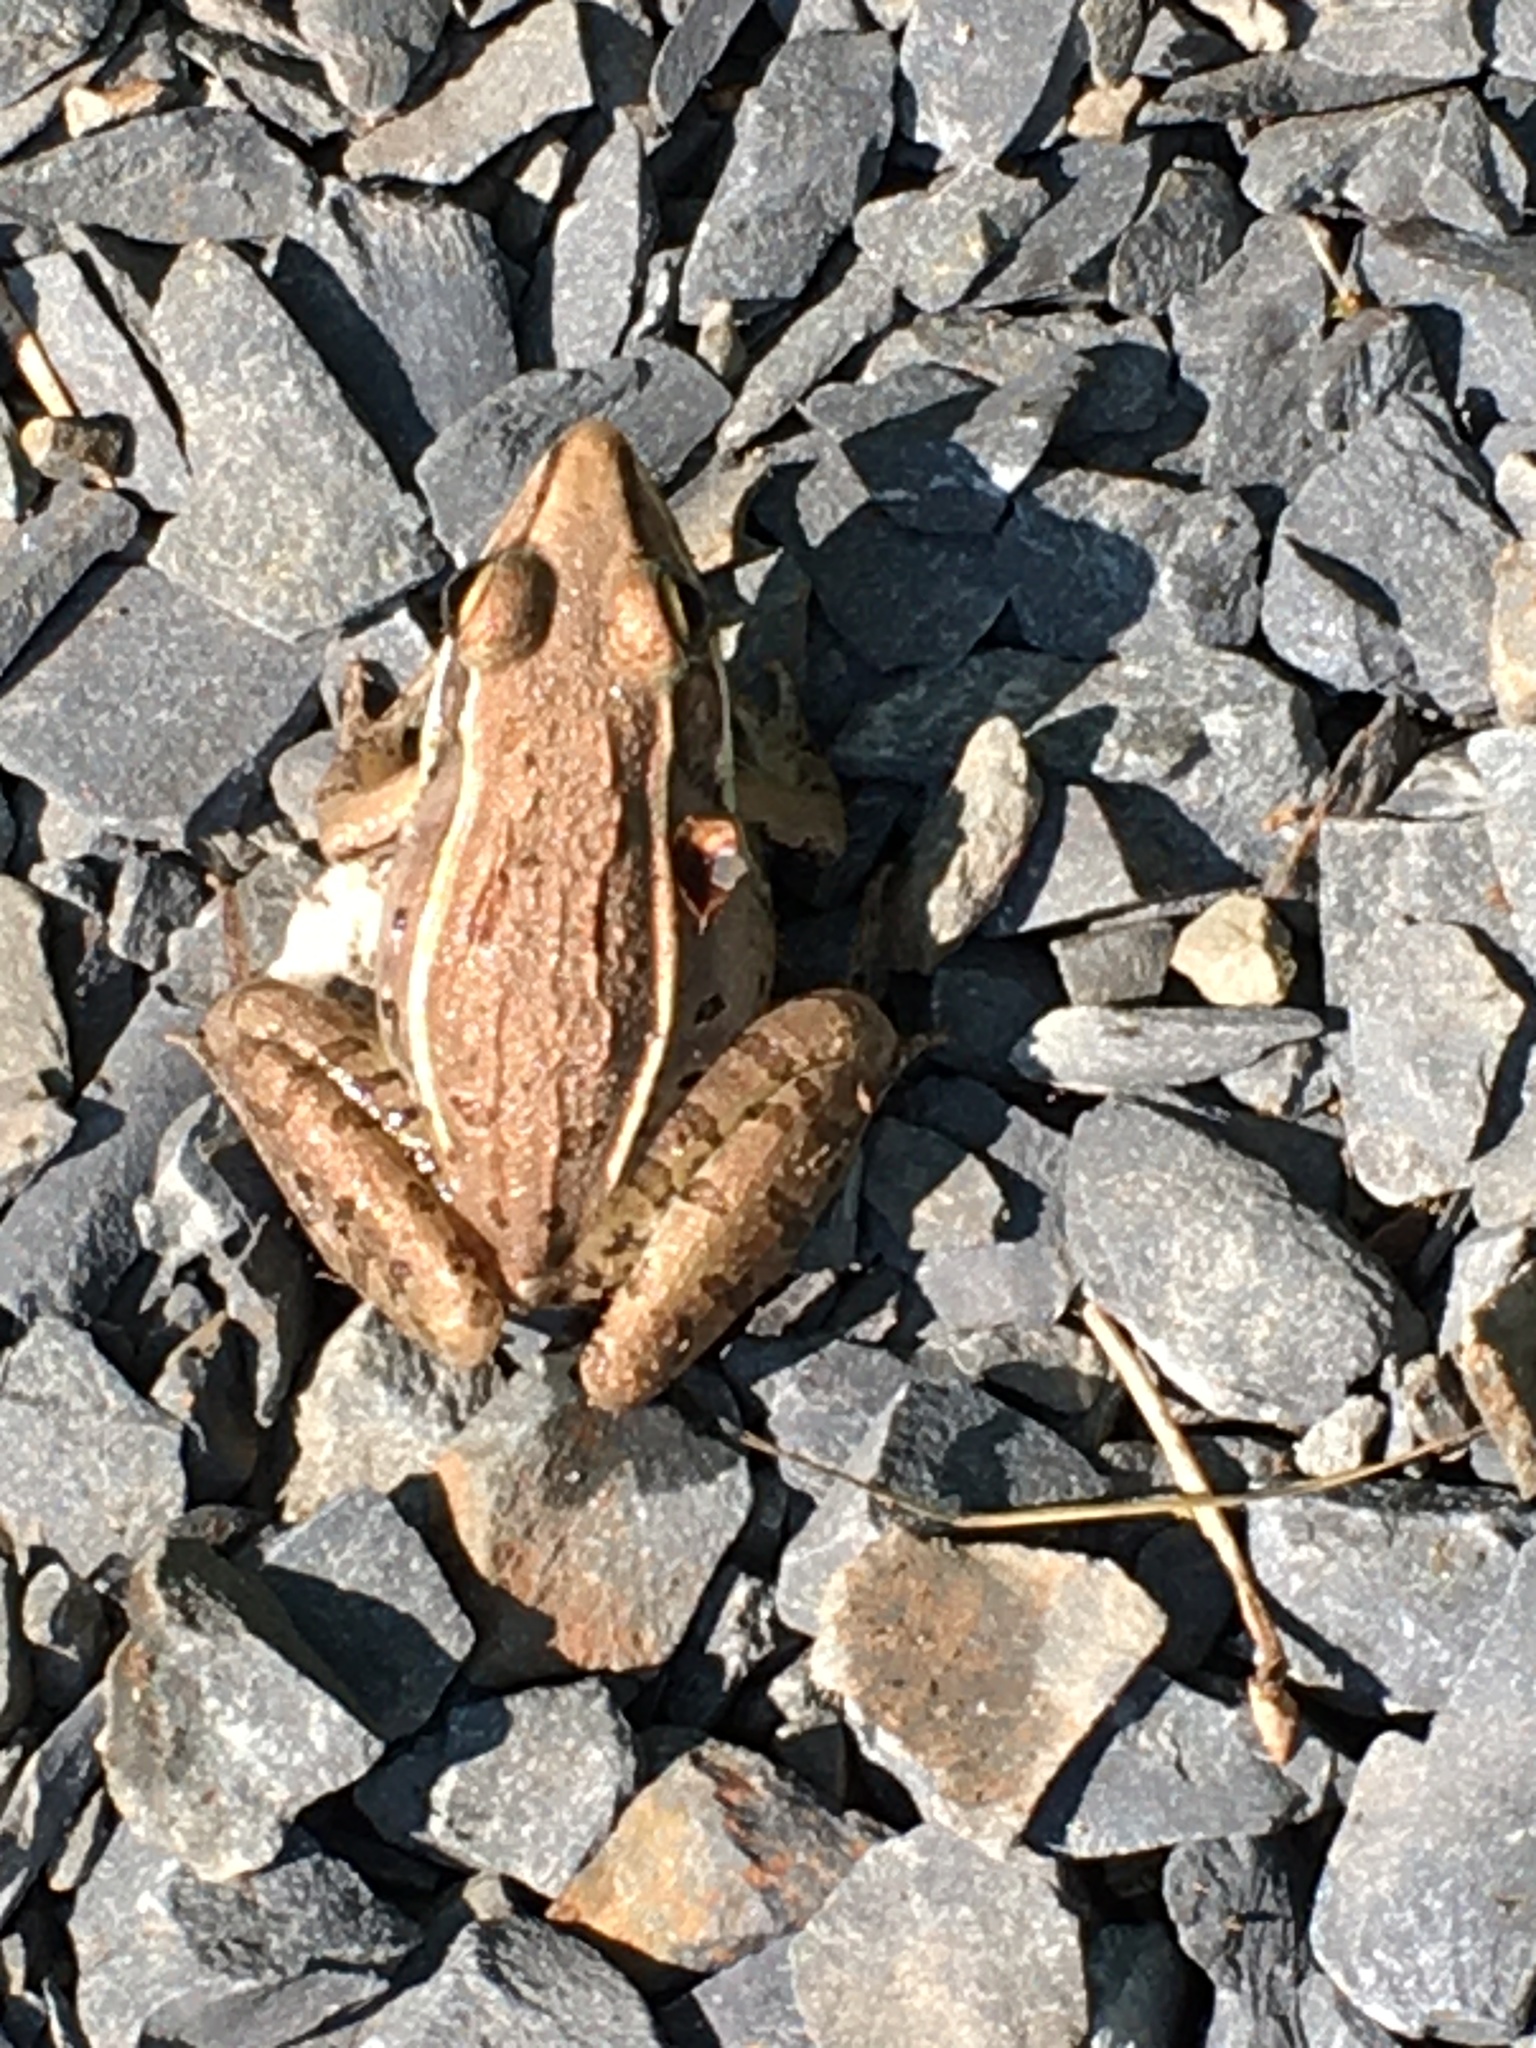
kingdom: Animalia
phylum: Chordata
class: Amphibia
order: Anura
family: Ranidae
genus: Lithobates
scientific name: Lithobates sphenocephalus
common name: Southern leopard frog
